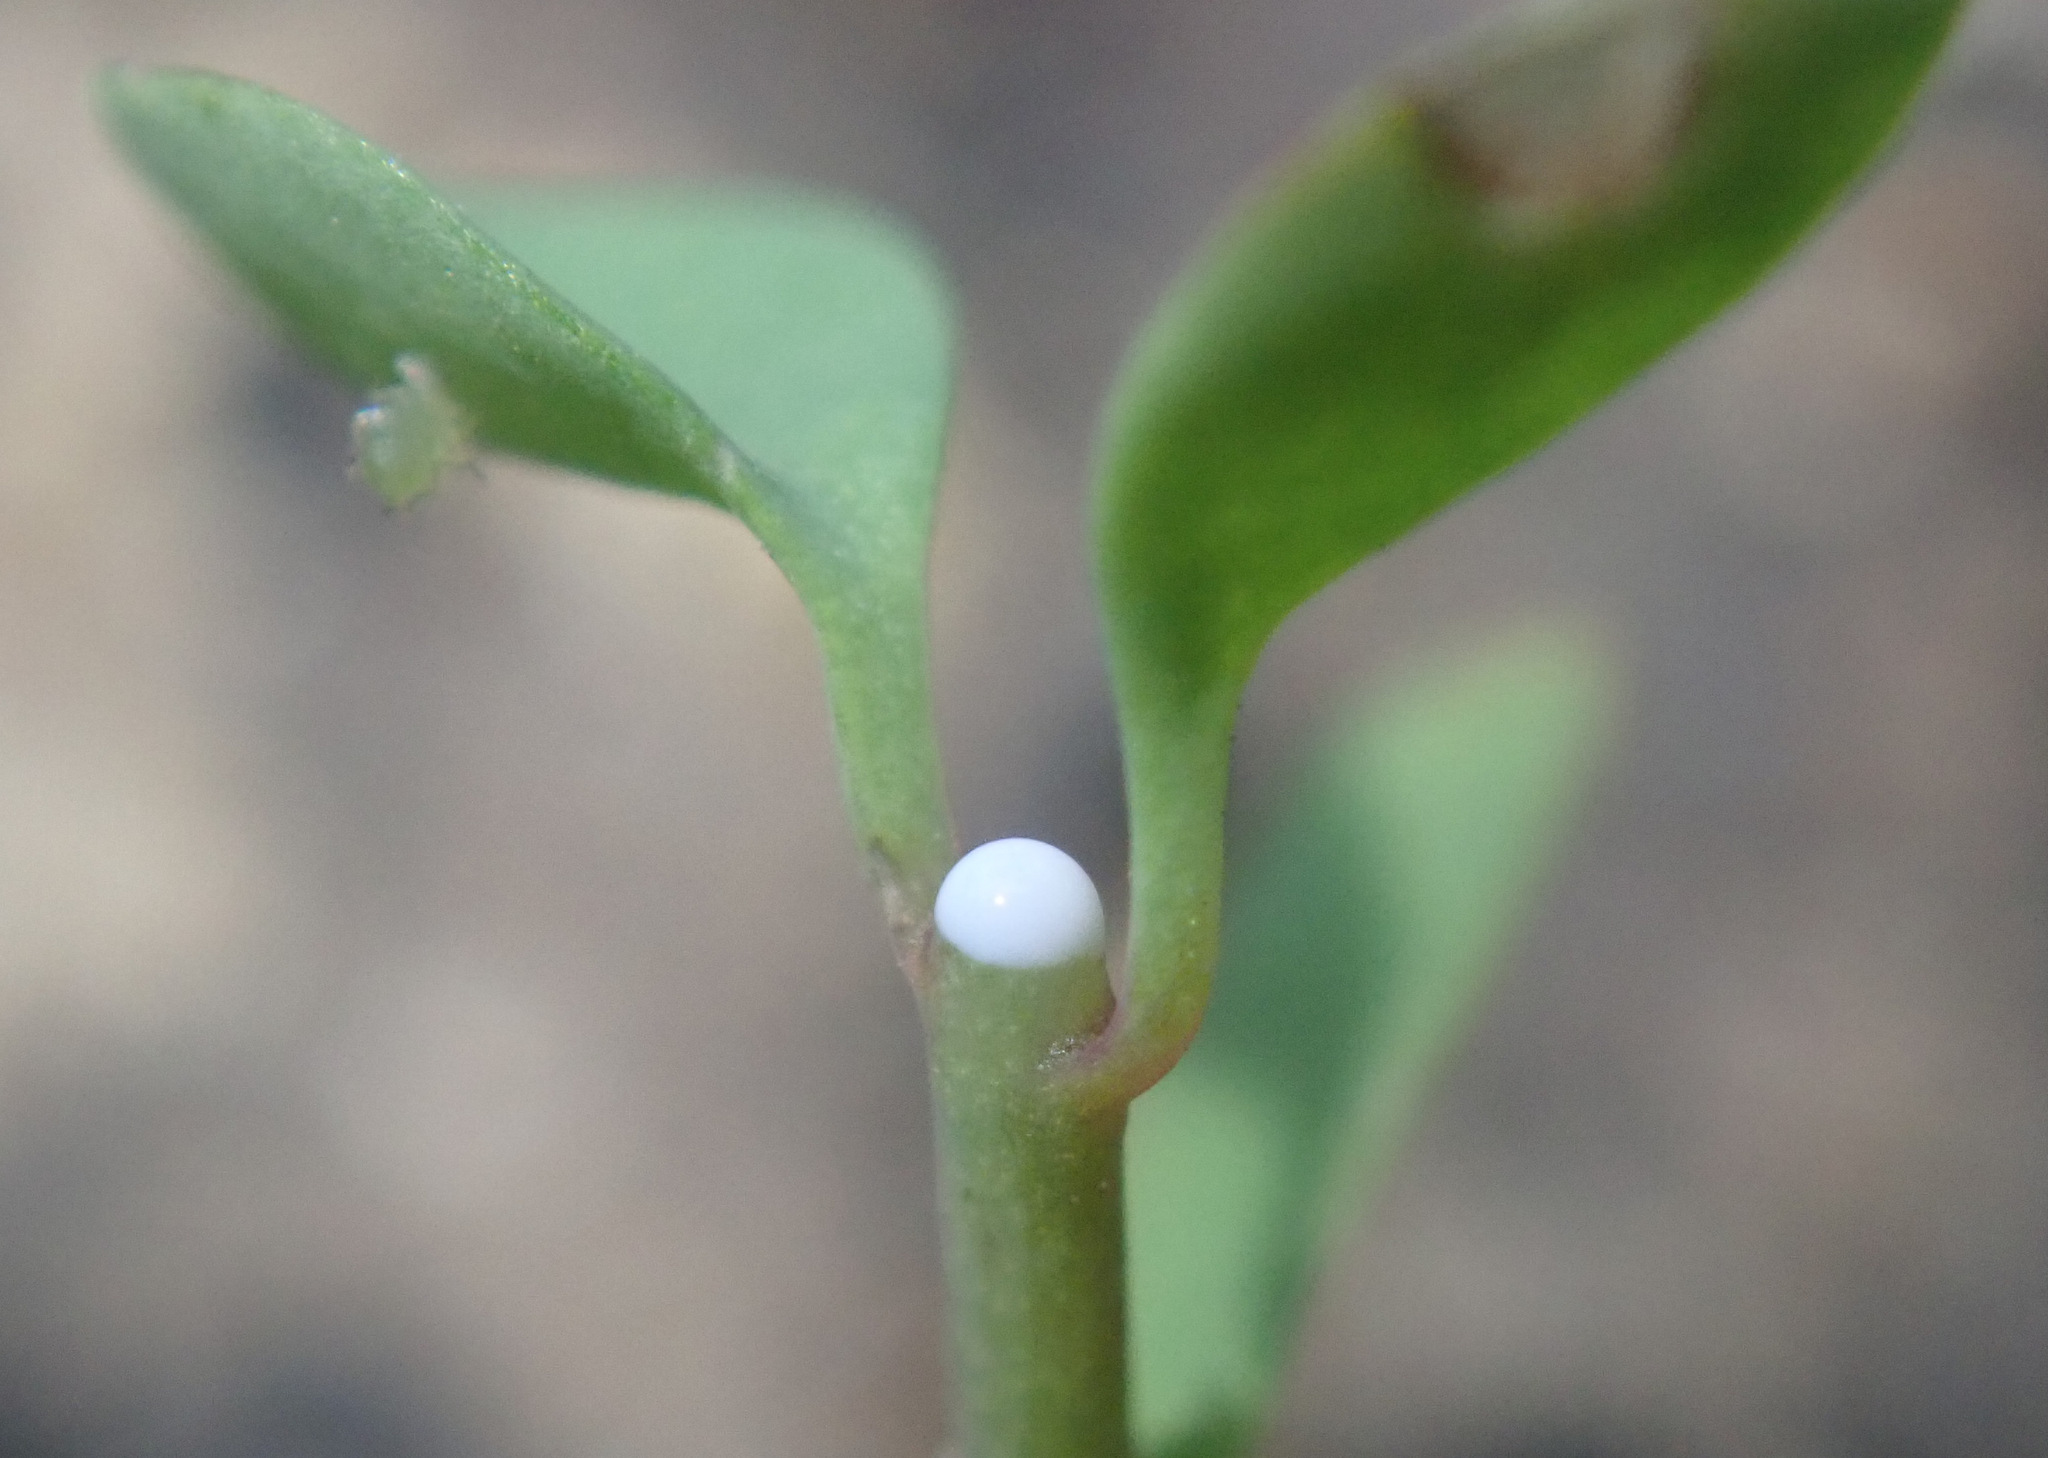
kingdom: Plantae
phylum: Tracheophyta
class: Magnoliopsida
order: Malpighiales
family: Euphorbiaceae
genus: Euphorbia
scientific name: Euphorbia peplus
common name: Petty spurge
